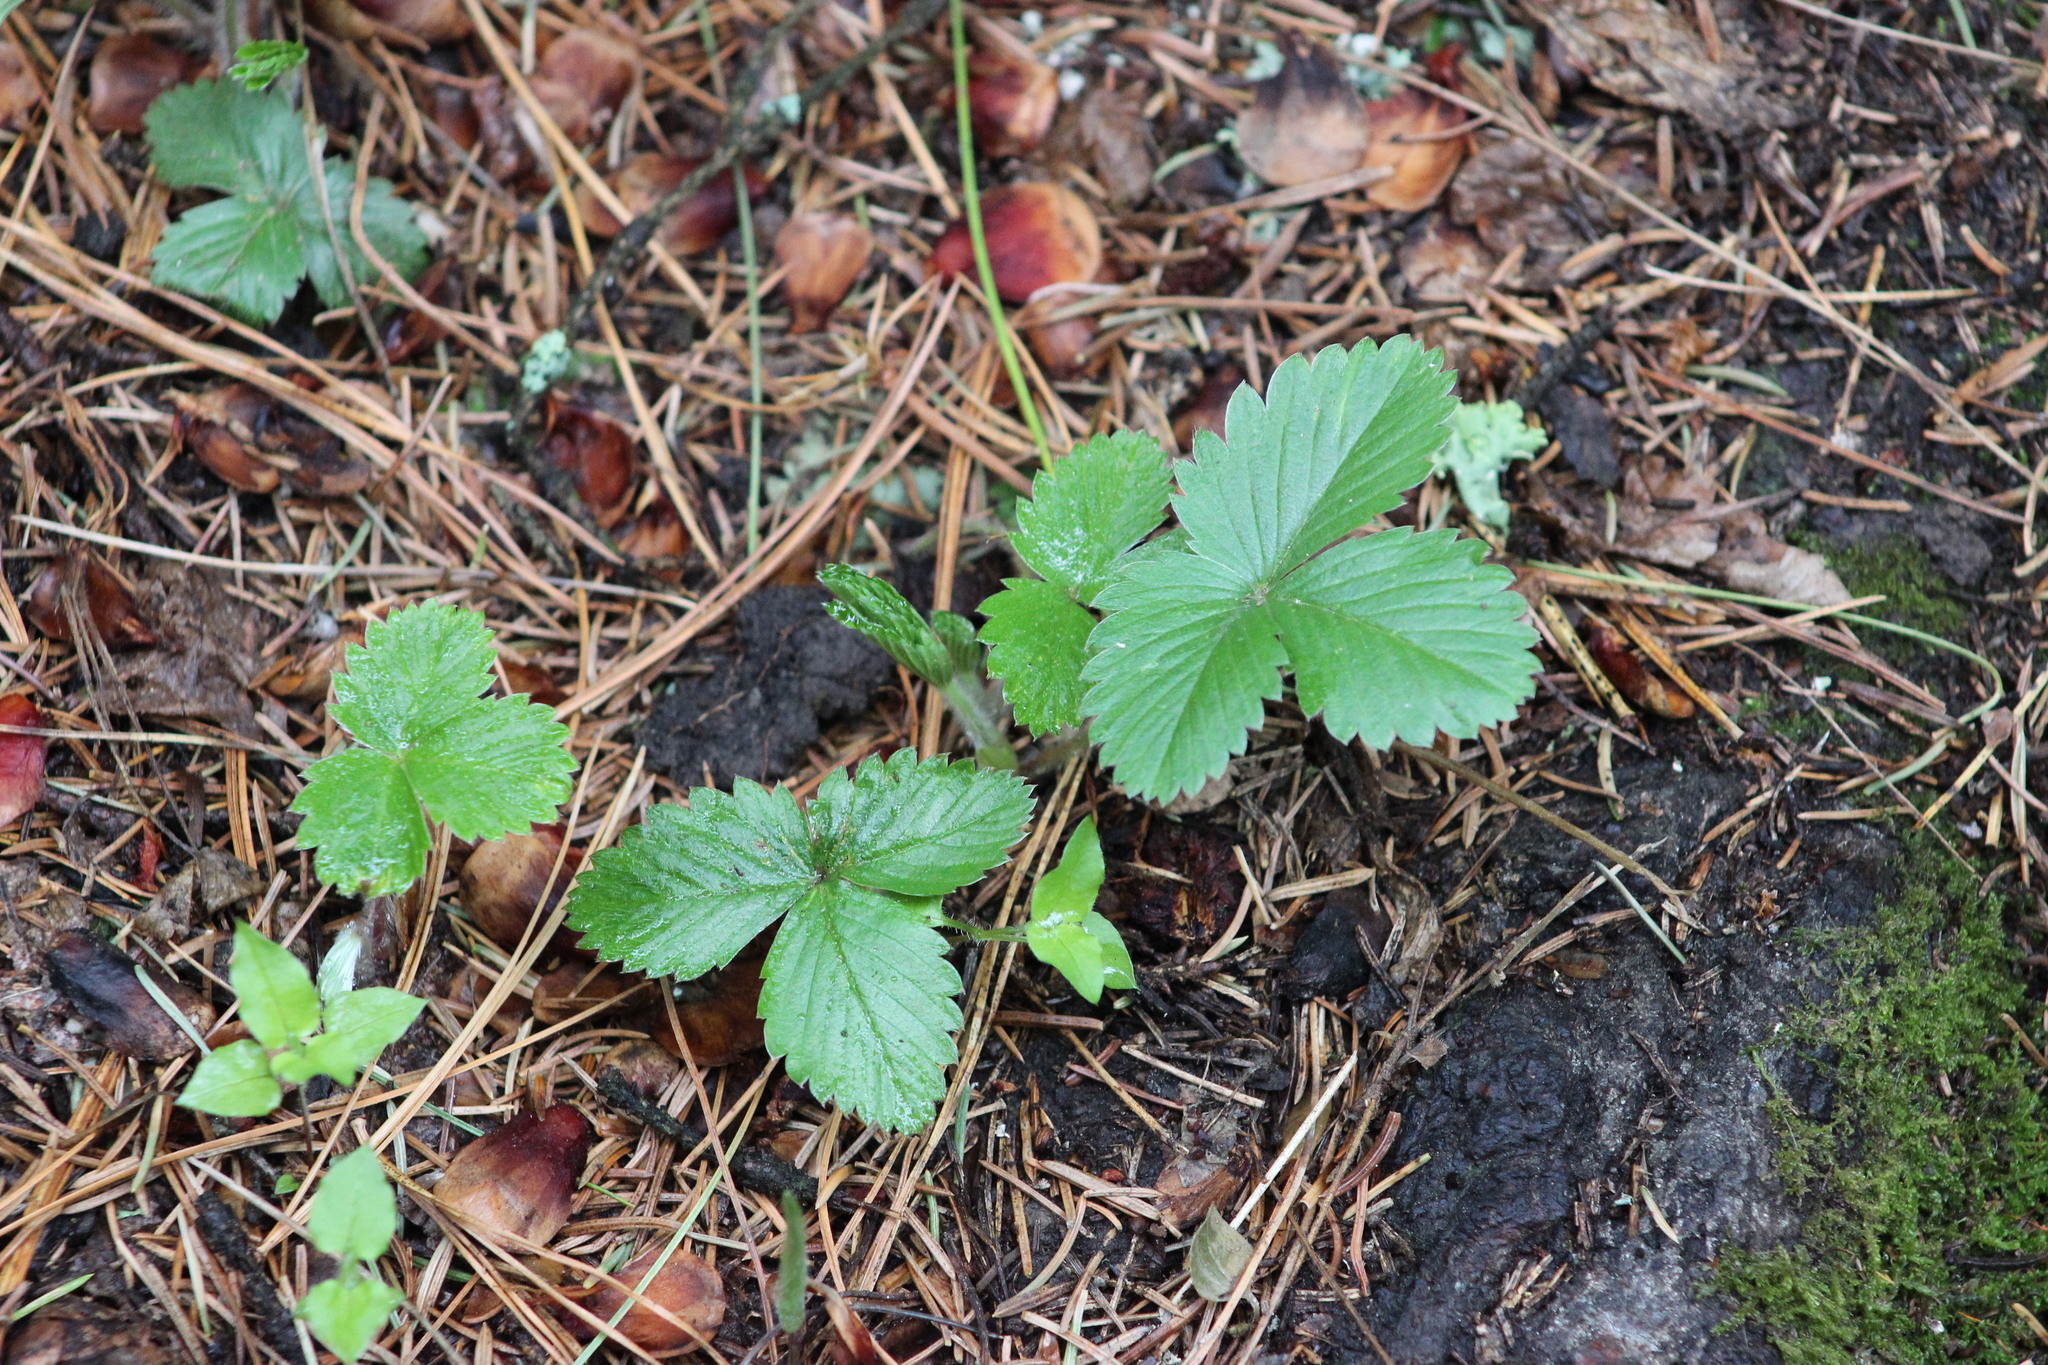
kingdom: Plantae
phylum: Tracheophyta
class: Magnoliopsida
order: Rosales
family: Rosaceae
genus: Fragaria
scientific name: Fragaria vesca
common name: Wild strawberry
